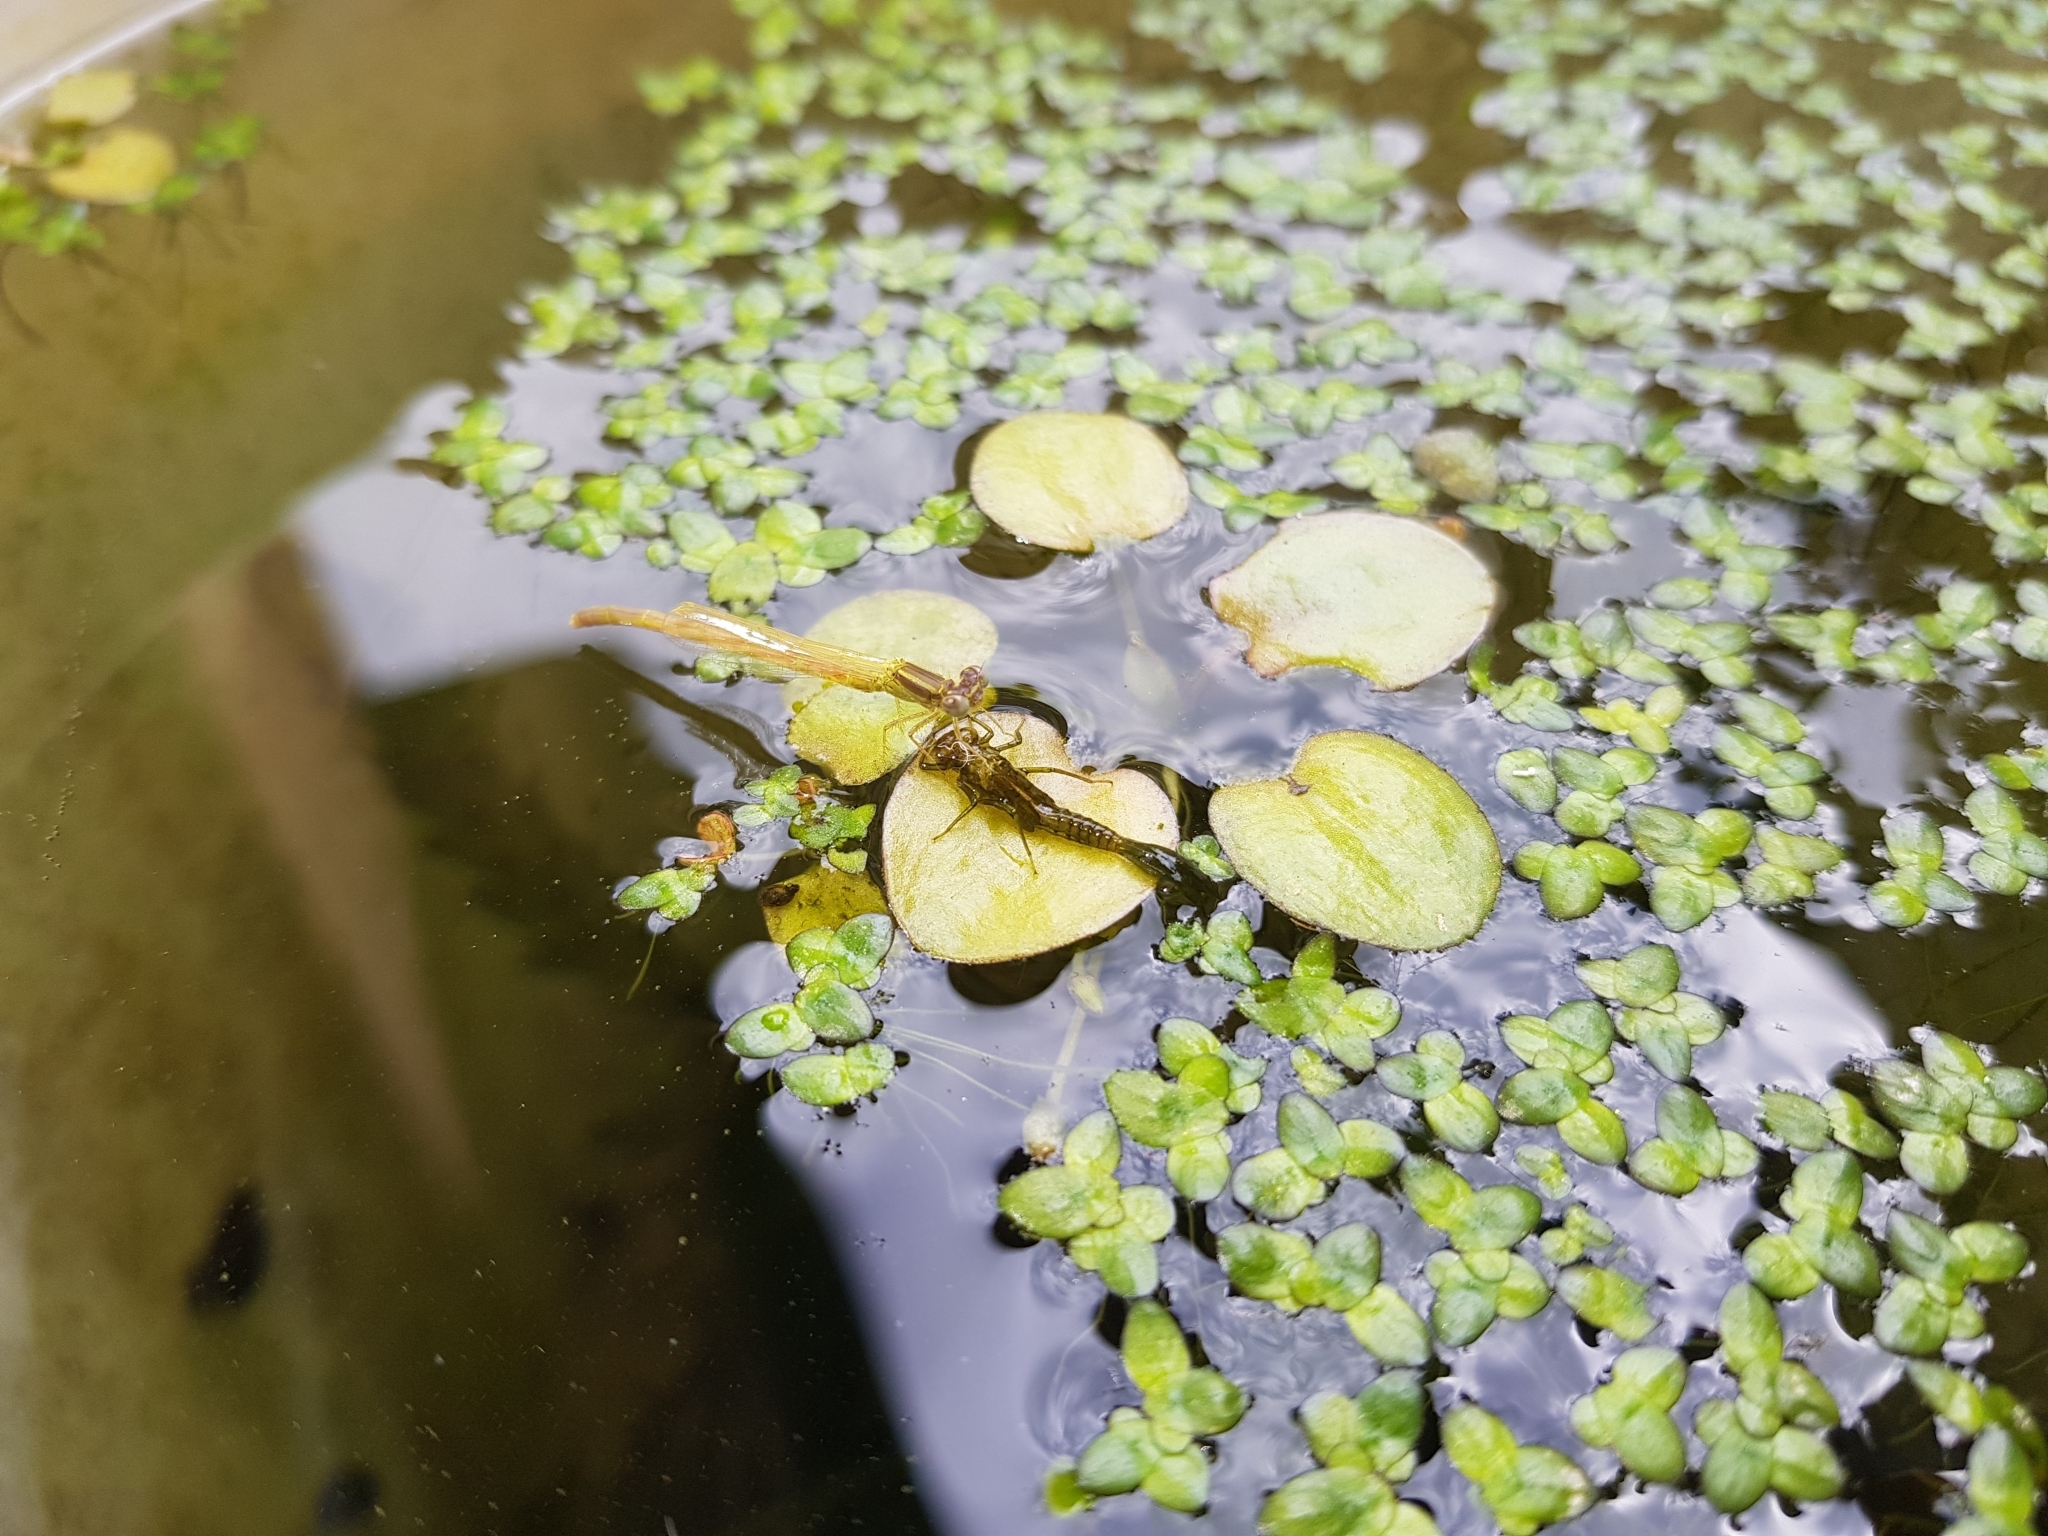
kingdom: Animalia
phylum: Arthropoda
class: Insecta
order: Odonata
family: Coenagrionidae
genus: Ischnura
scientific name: Ischnura aurora
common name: Gossamer damselfly
